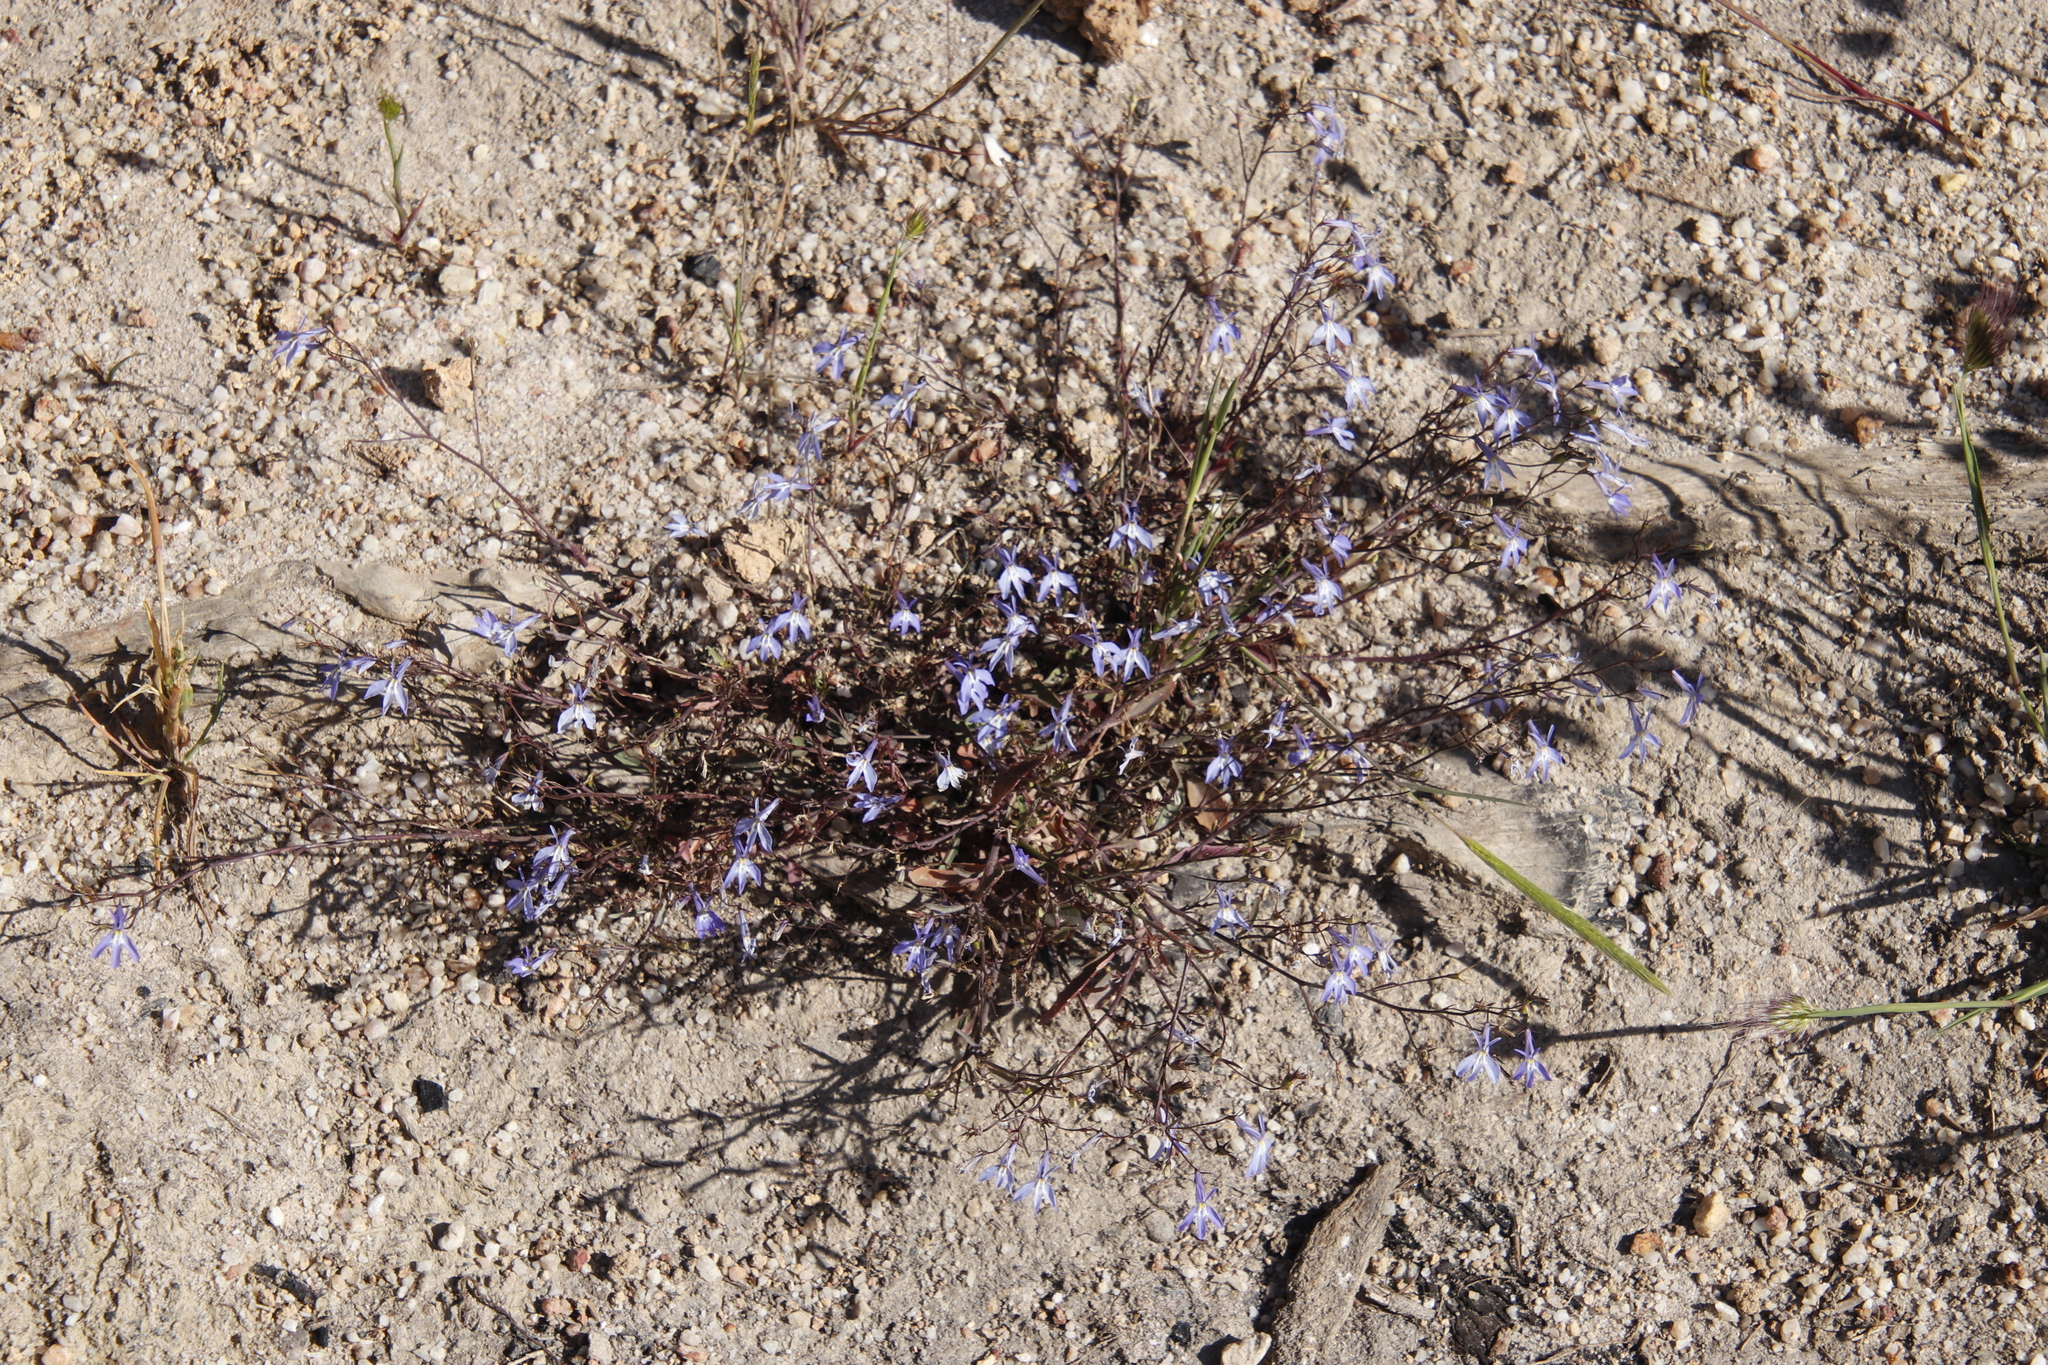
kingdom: Plantae
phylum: Tracheophyta
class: Magnoliopsida
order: Asterales
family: Campanulaceae
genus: Lobelia
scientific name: Lobelia erinus
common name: Edging lobelia
